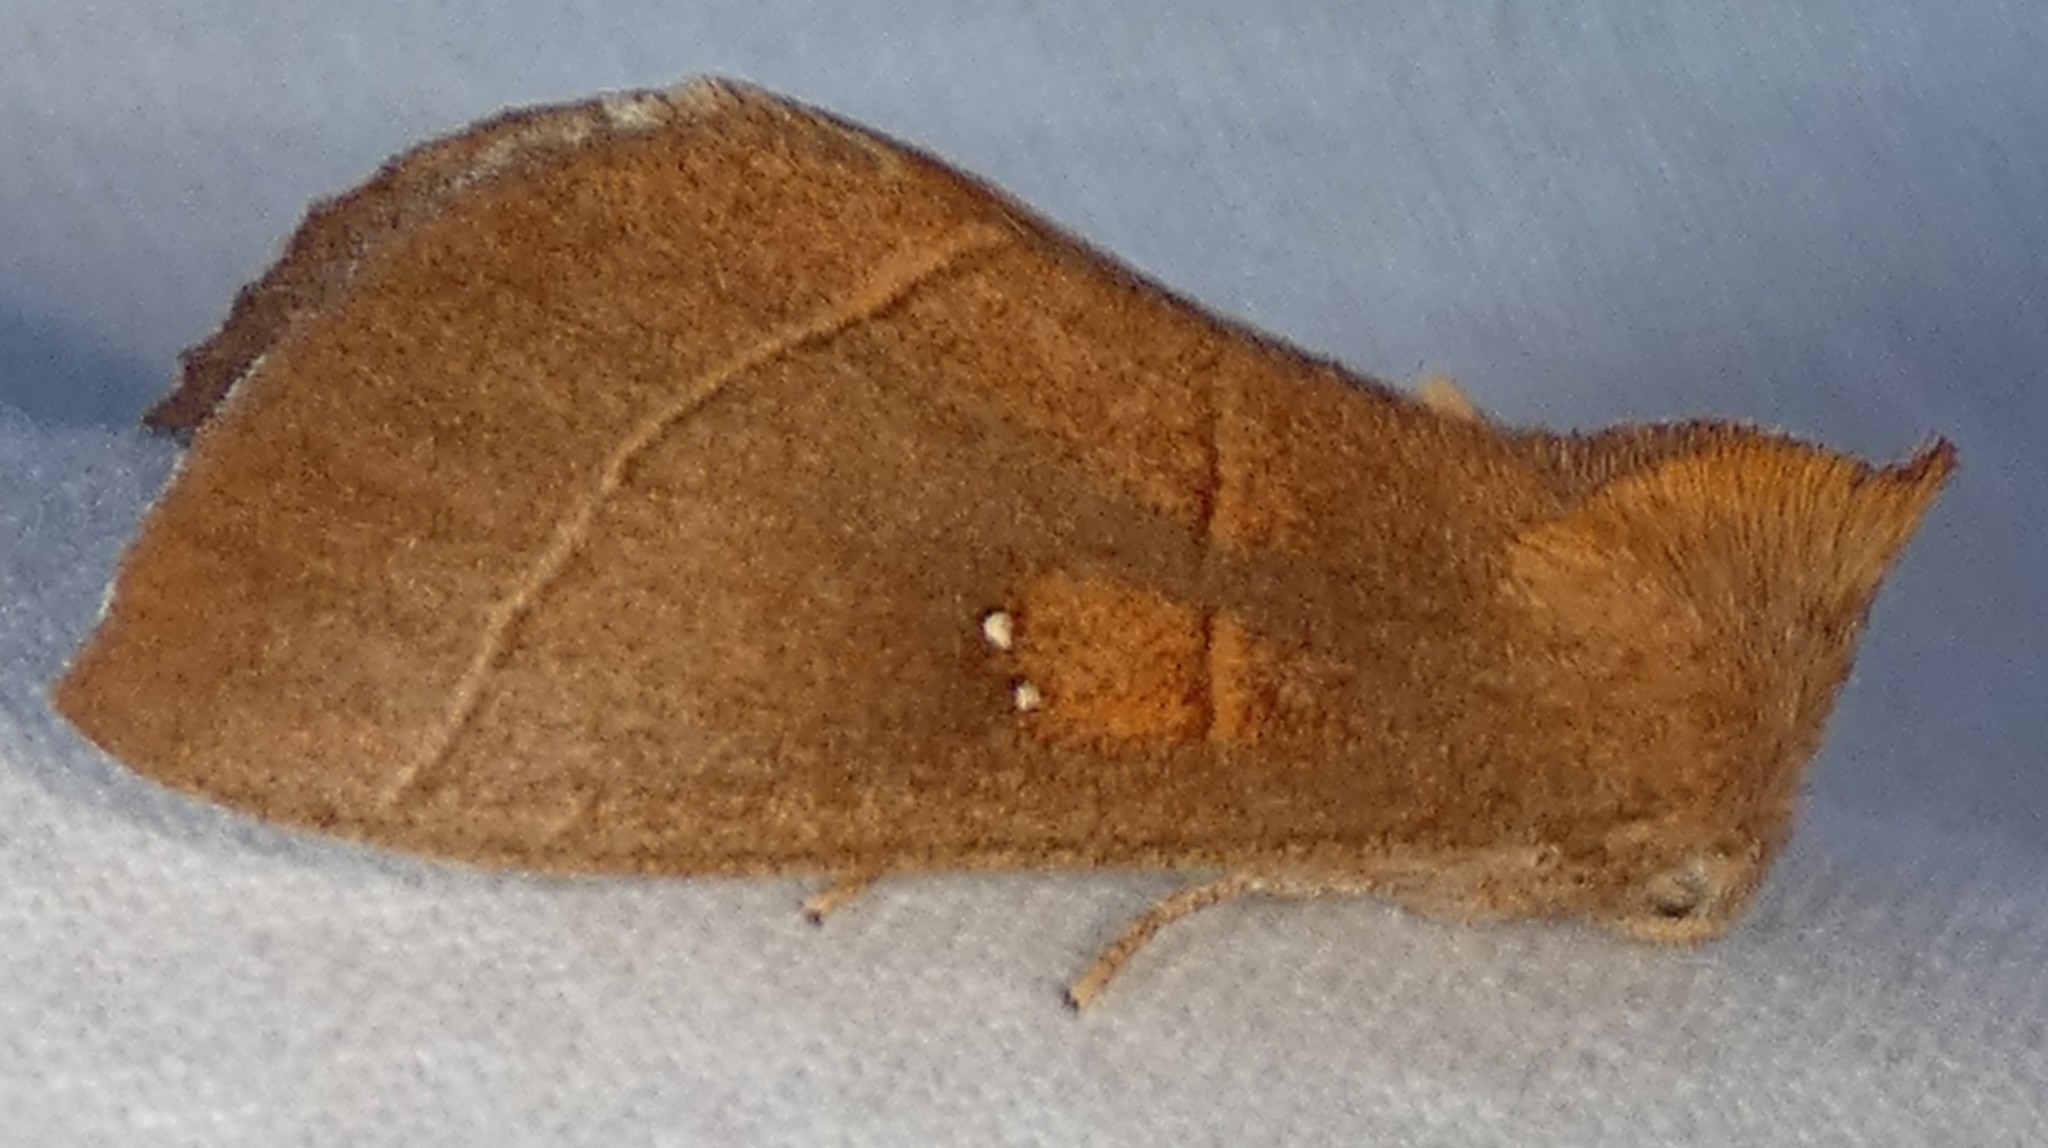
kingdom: Animalia
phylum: Arthropoda
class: Insecta
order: Lepidoptera
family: Notodontidae
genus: Nadata
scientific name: Nadata gibbosa
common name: White-dotted prominent
